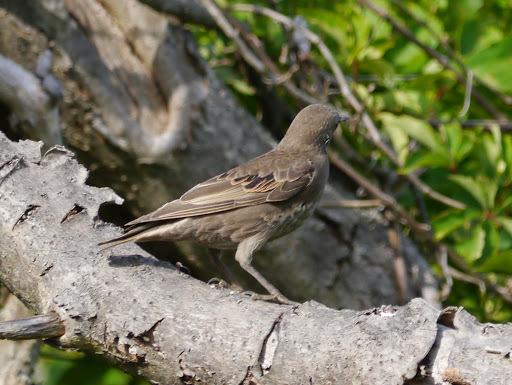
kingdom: Animalia
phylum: Chordata
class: Aves
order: Passeriformes
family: Sturnidae
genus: Sturnus
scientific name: Sturnus vulgaris
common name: Common starling
